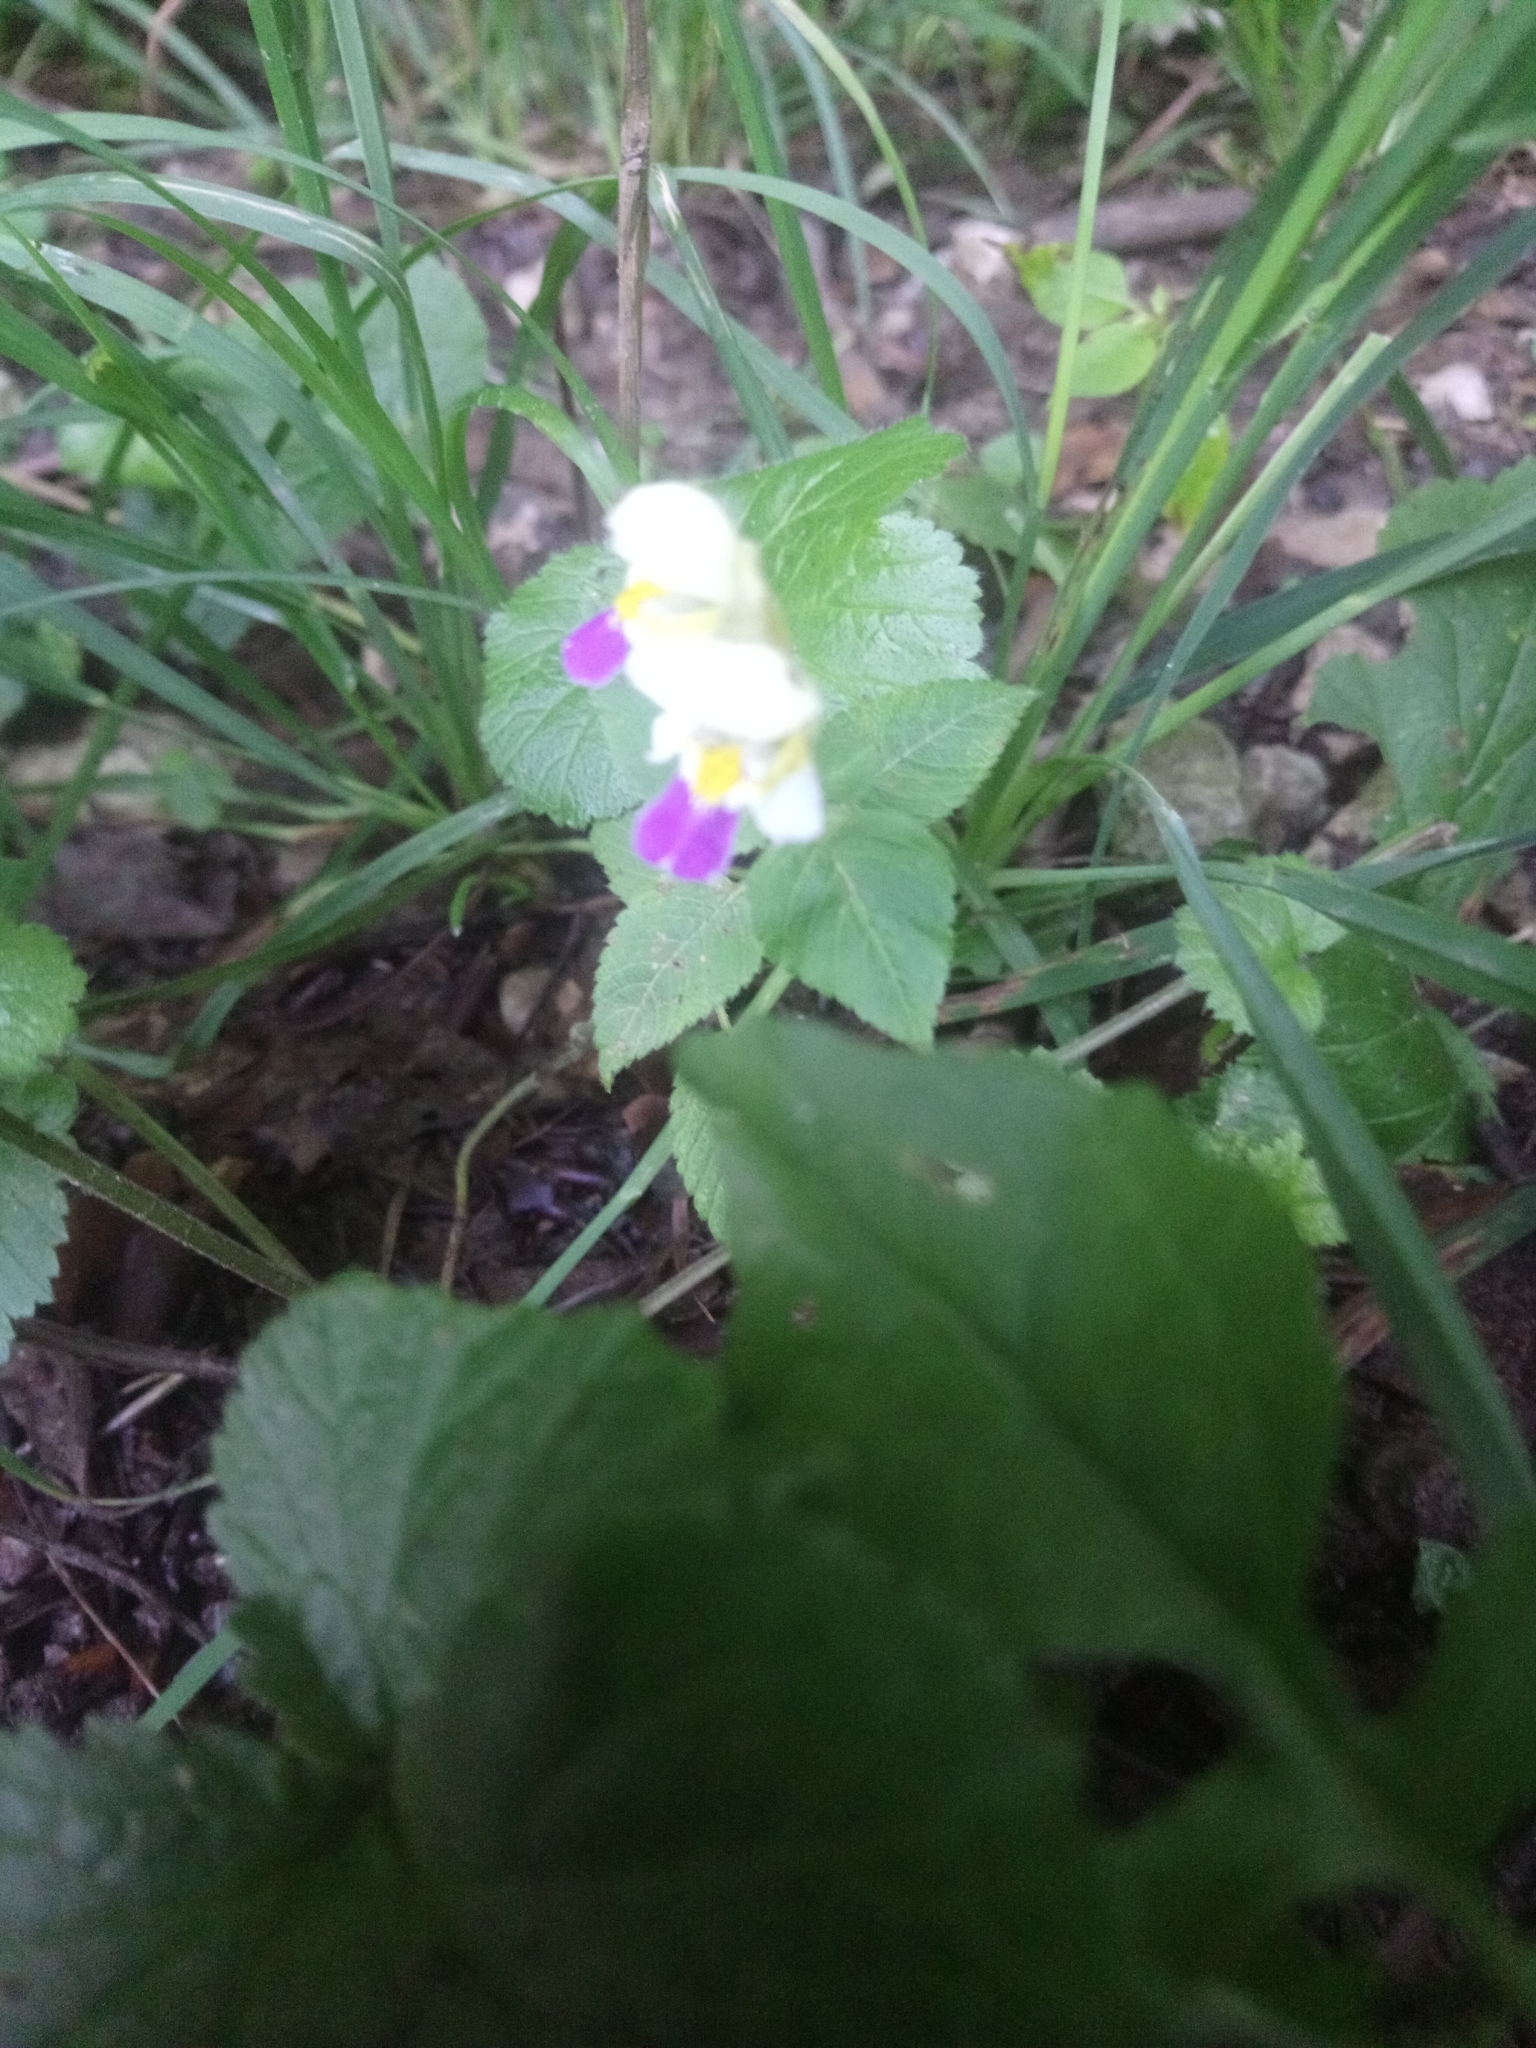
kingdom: Plantae
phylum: Tracheophyta
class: Magnoliopsida
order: Lamiales
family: Lamiaceae
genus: Galeopsis
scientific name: Galeopsis speciosa
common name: Large-flowered hemp-nettle
